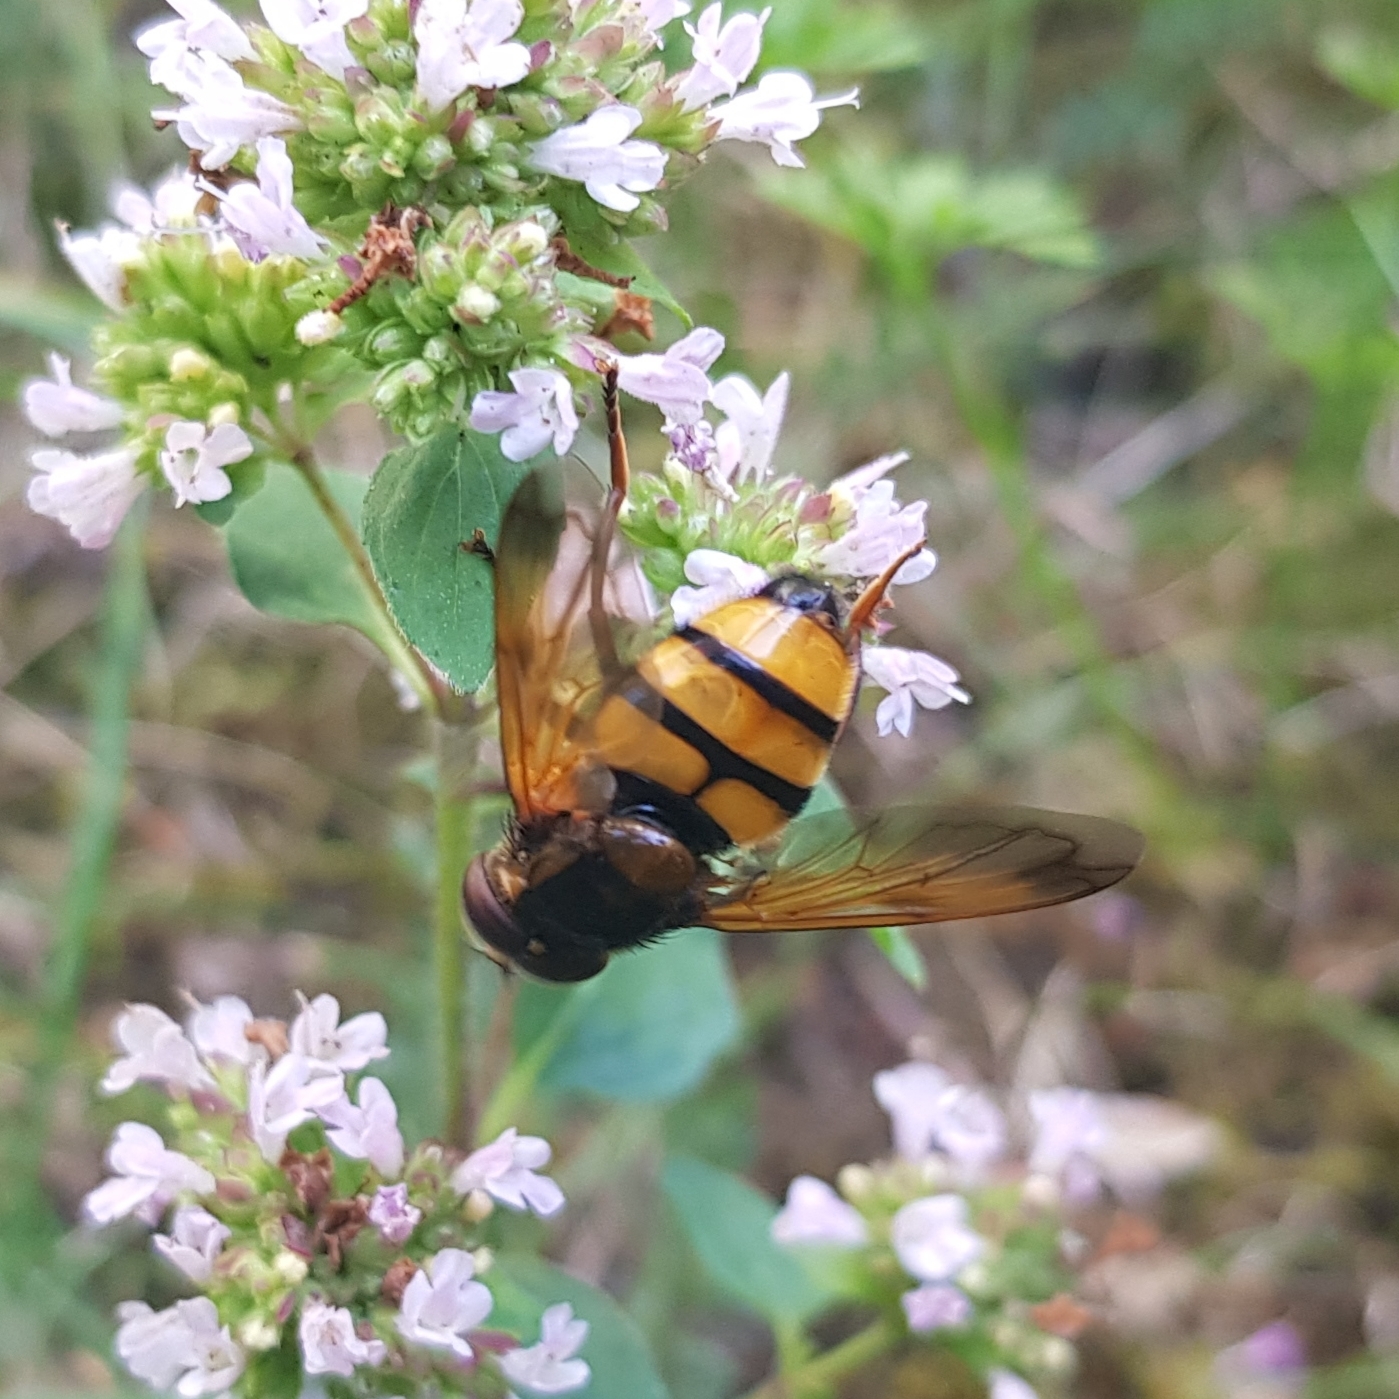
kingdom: Animalia
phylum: Arthropoda
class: Insecta
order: Diptera
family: Syrphidae
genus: Volucella
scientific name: Volucella inanis
